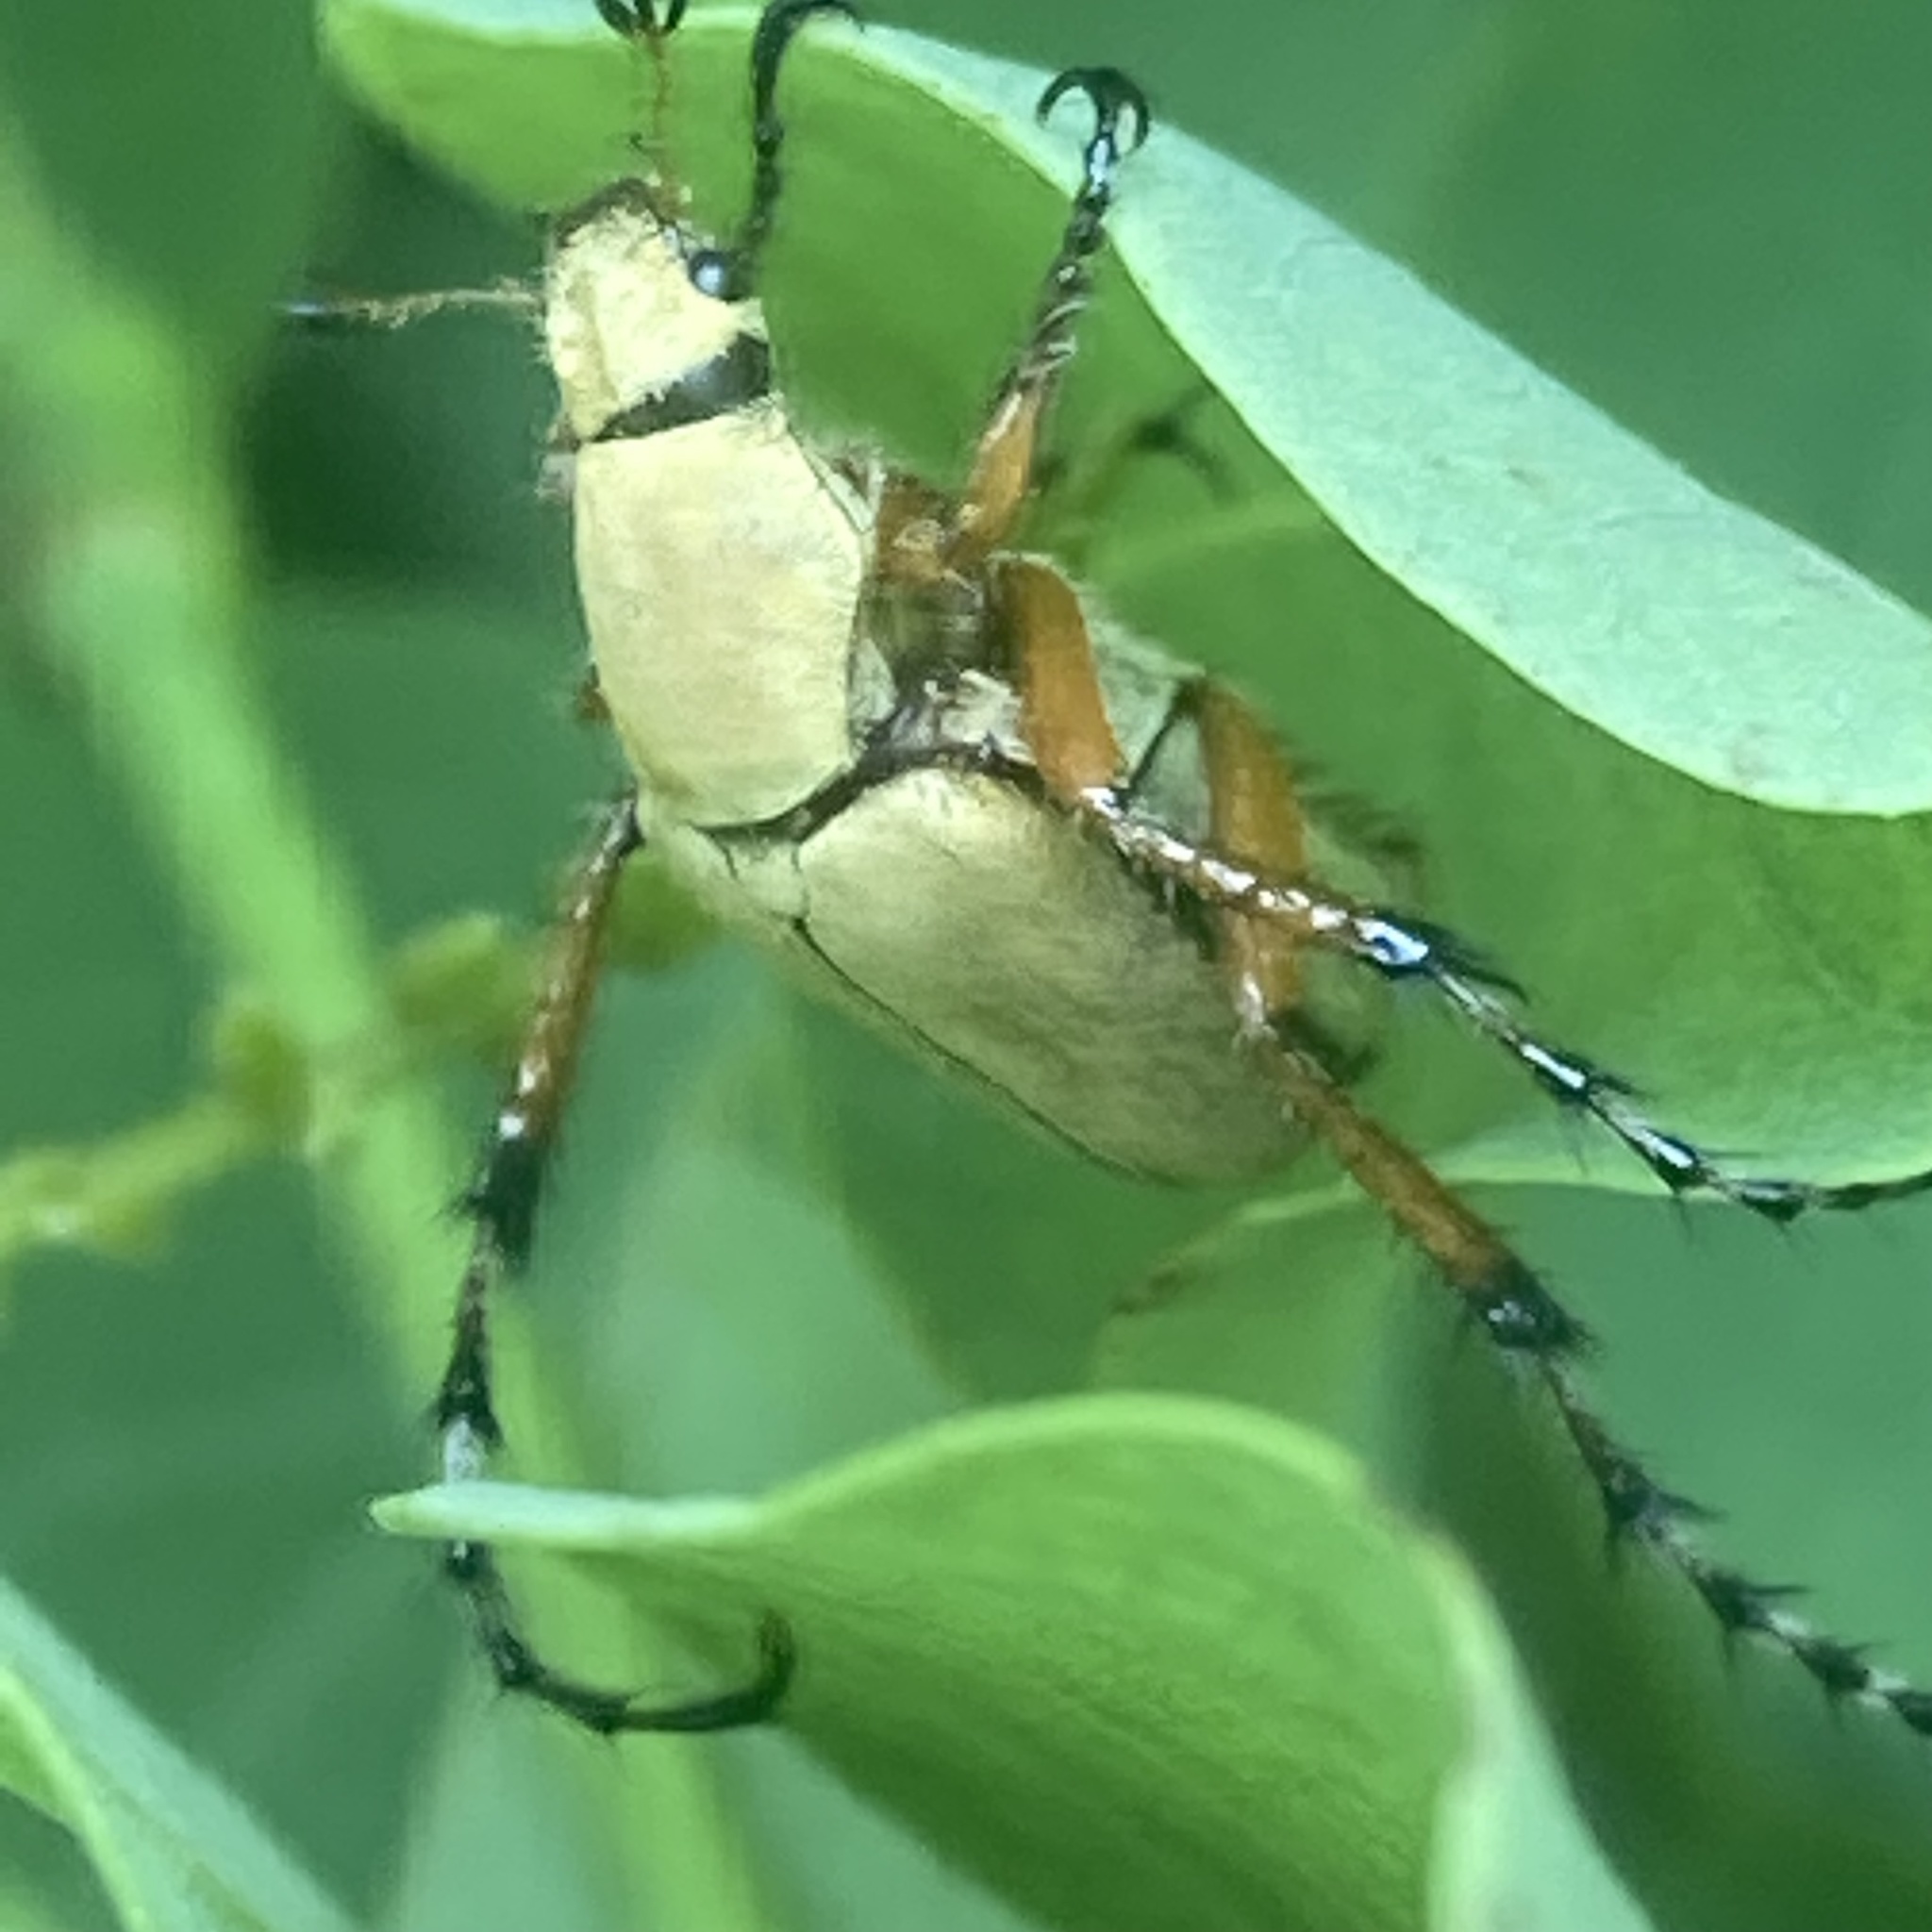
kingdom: Animalia
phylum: Arthropoda
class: Insecta
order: Coleoptera
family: Scarabaeidae
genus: Macrodactylus
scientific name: Macrodactylus subspinosus
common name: American rose chafer
